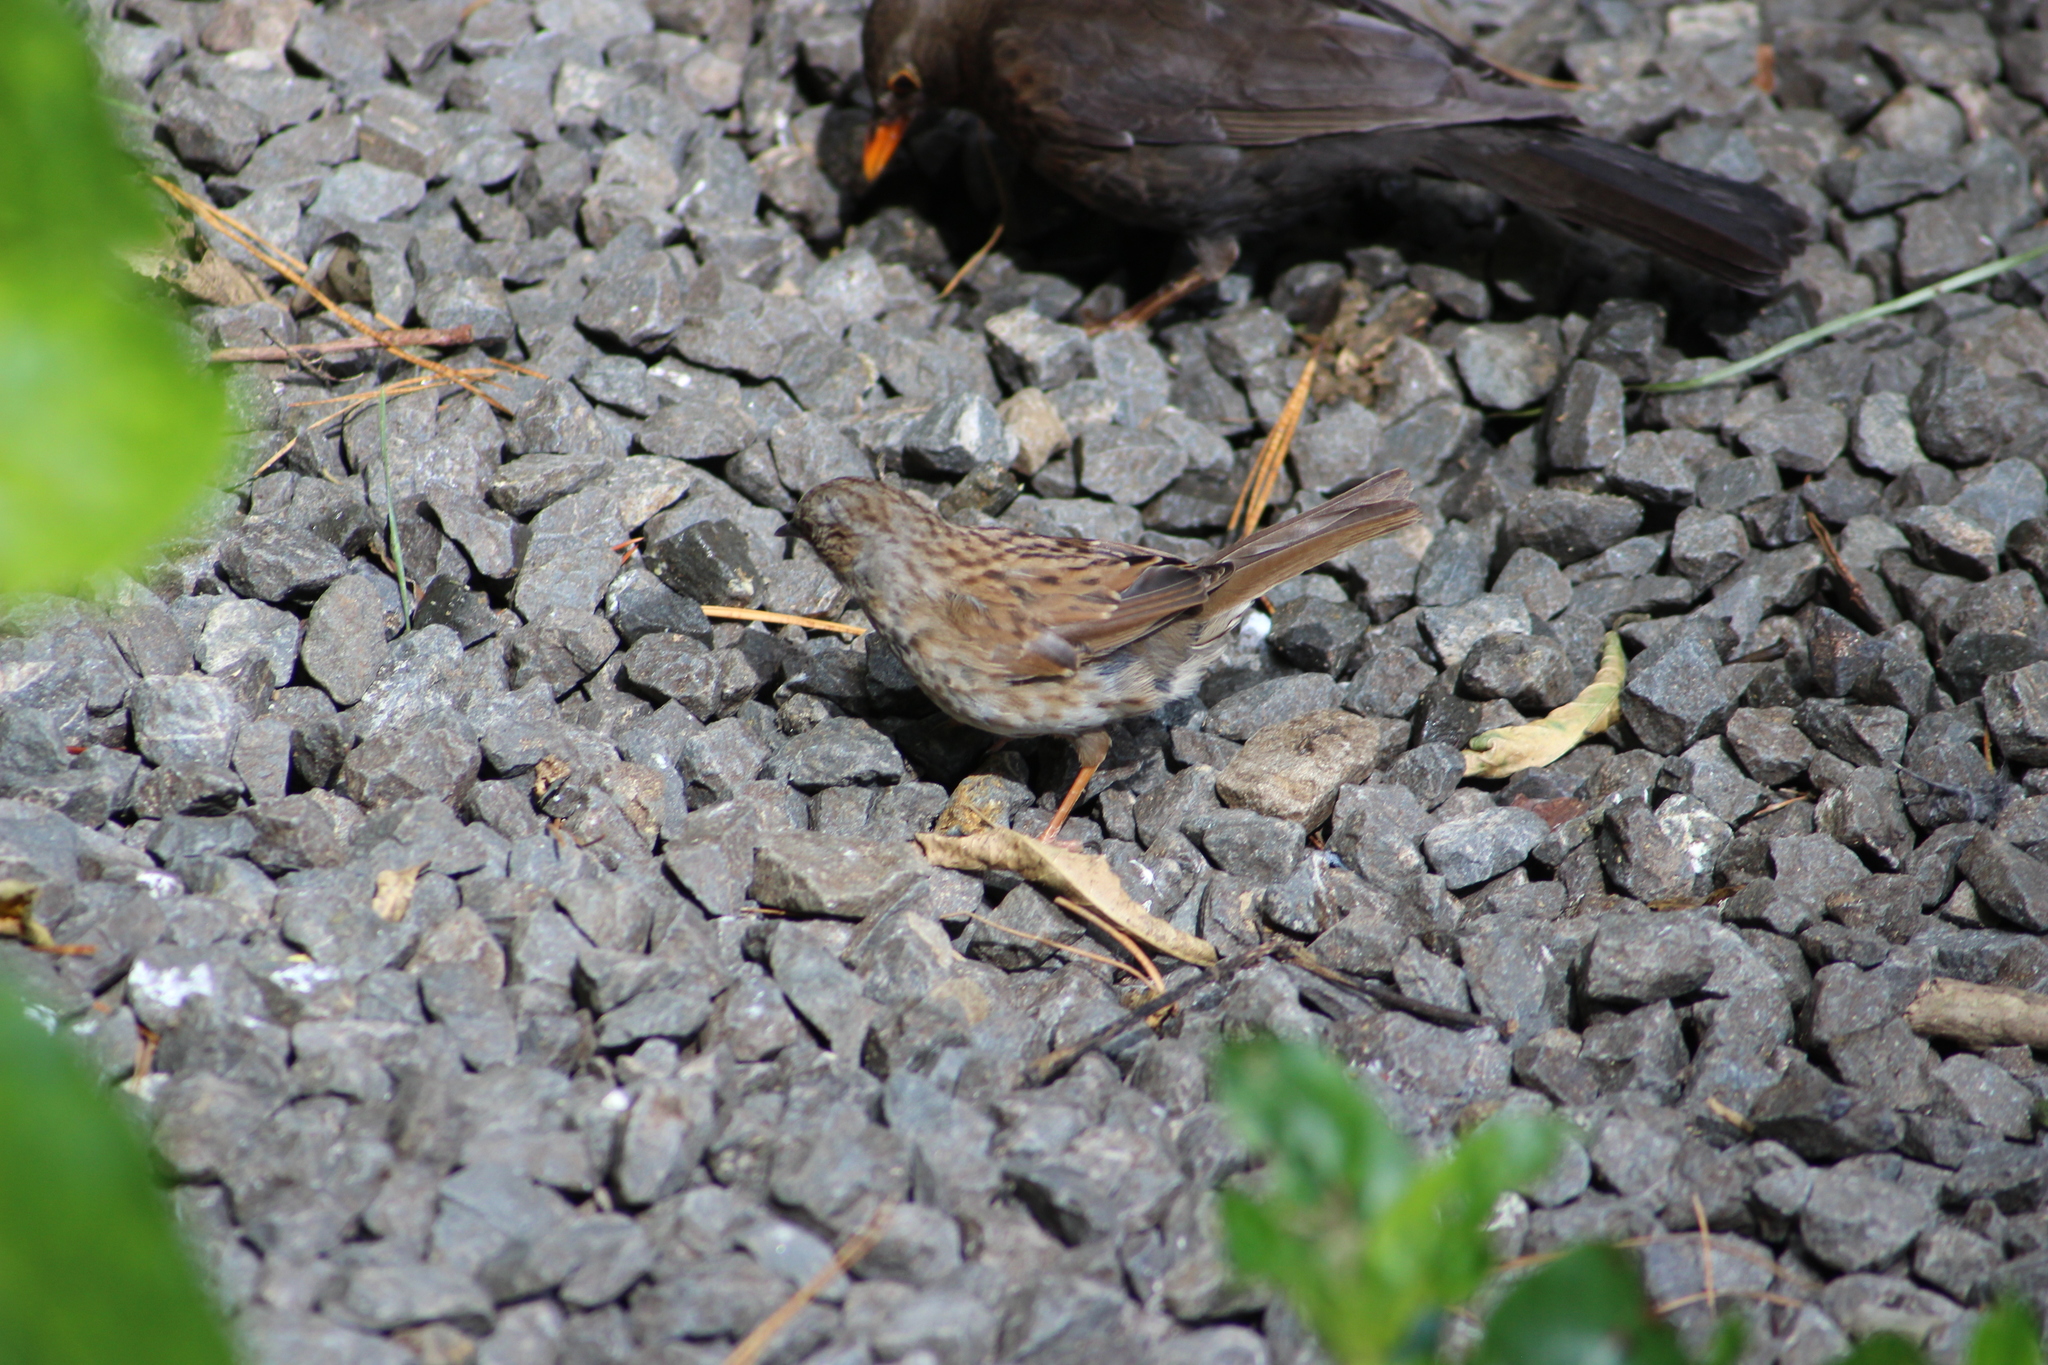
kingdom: Animalia
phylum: Chordata
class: Aves
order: Passeriformes
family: Prunellidae
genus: Prunella
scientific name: Prunella modularis
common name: Dunnock
